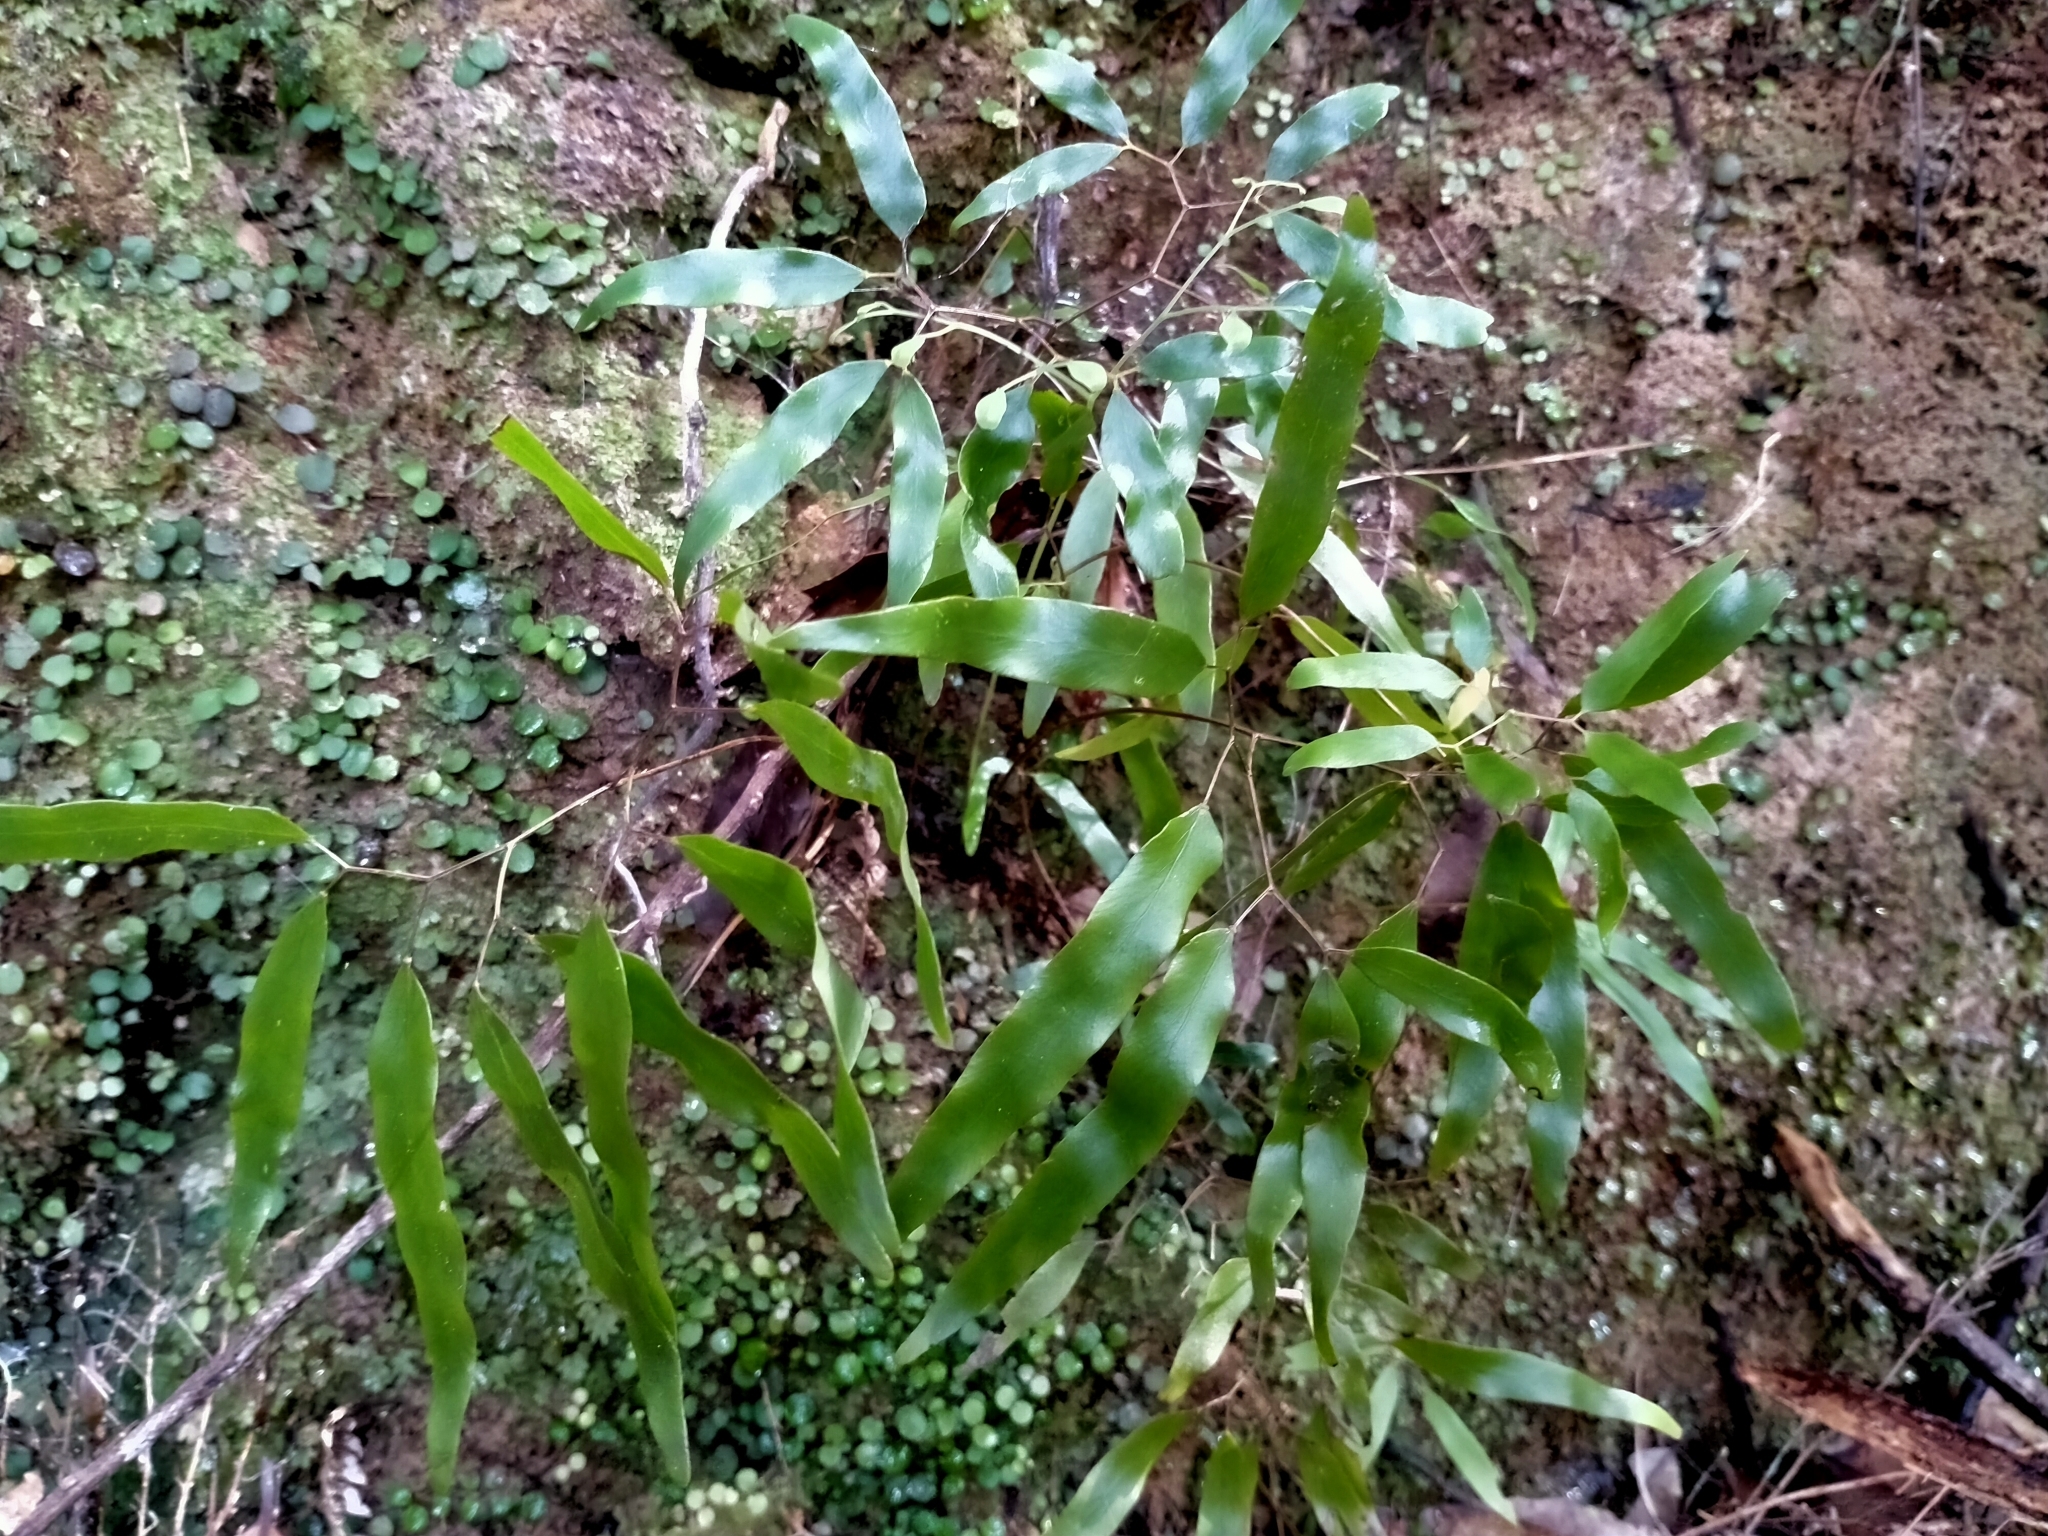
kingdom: Plantae
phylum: Tracheophyta
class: Polypodiopsida
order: Schizaeales
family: Lygodiaceae
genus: Lygodium
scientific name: Lygodium articulatum
